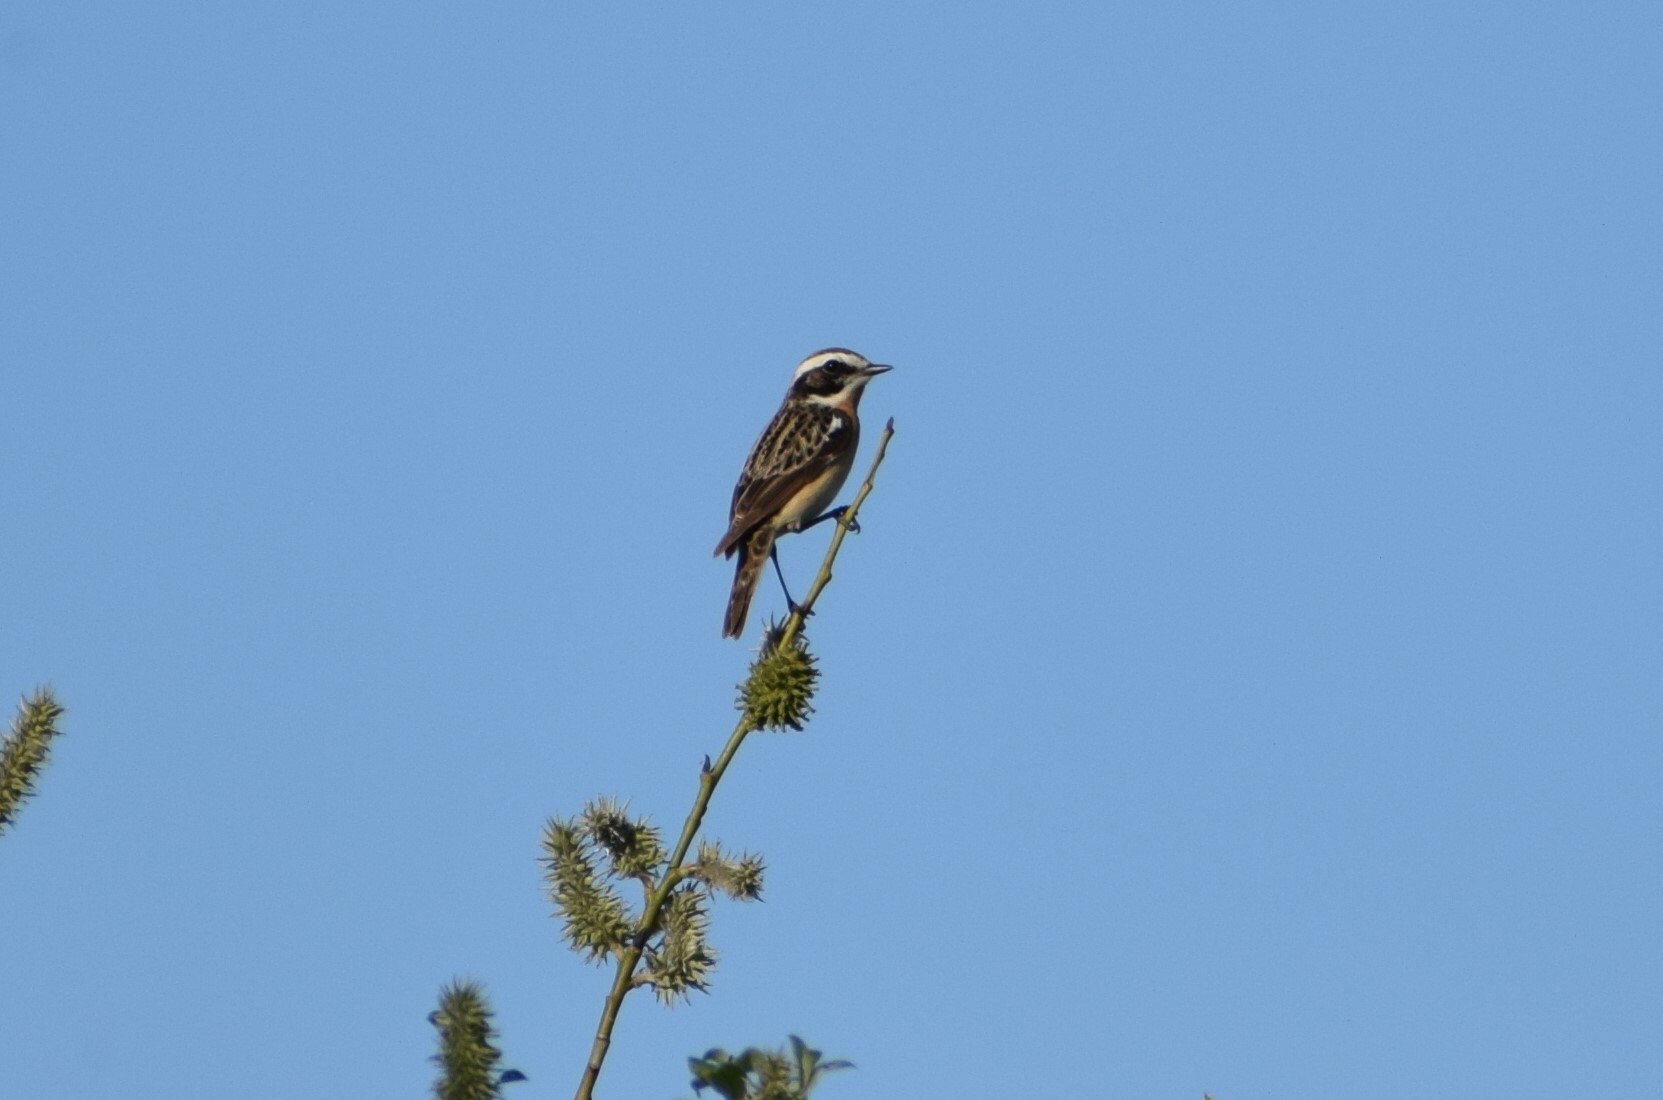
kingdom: Animalia
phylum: Chordata
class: Aves
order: Passeriformes
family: Muscicapidae
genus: Saxicola
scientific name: Saxicola rubetra
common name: Whinchat
